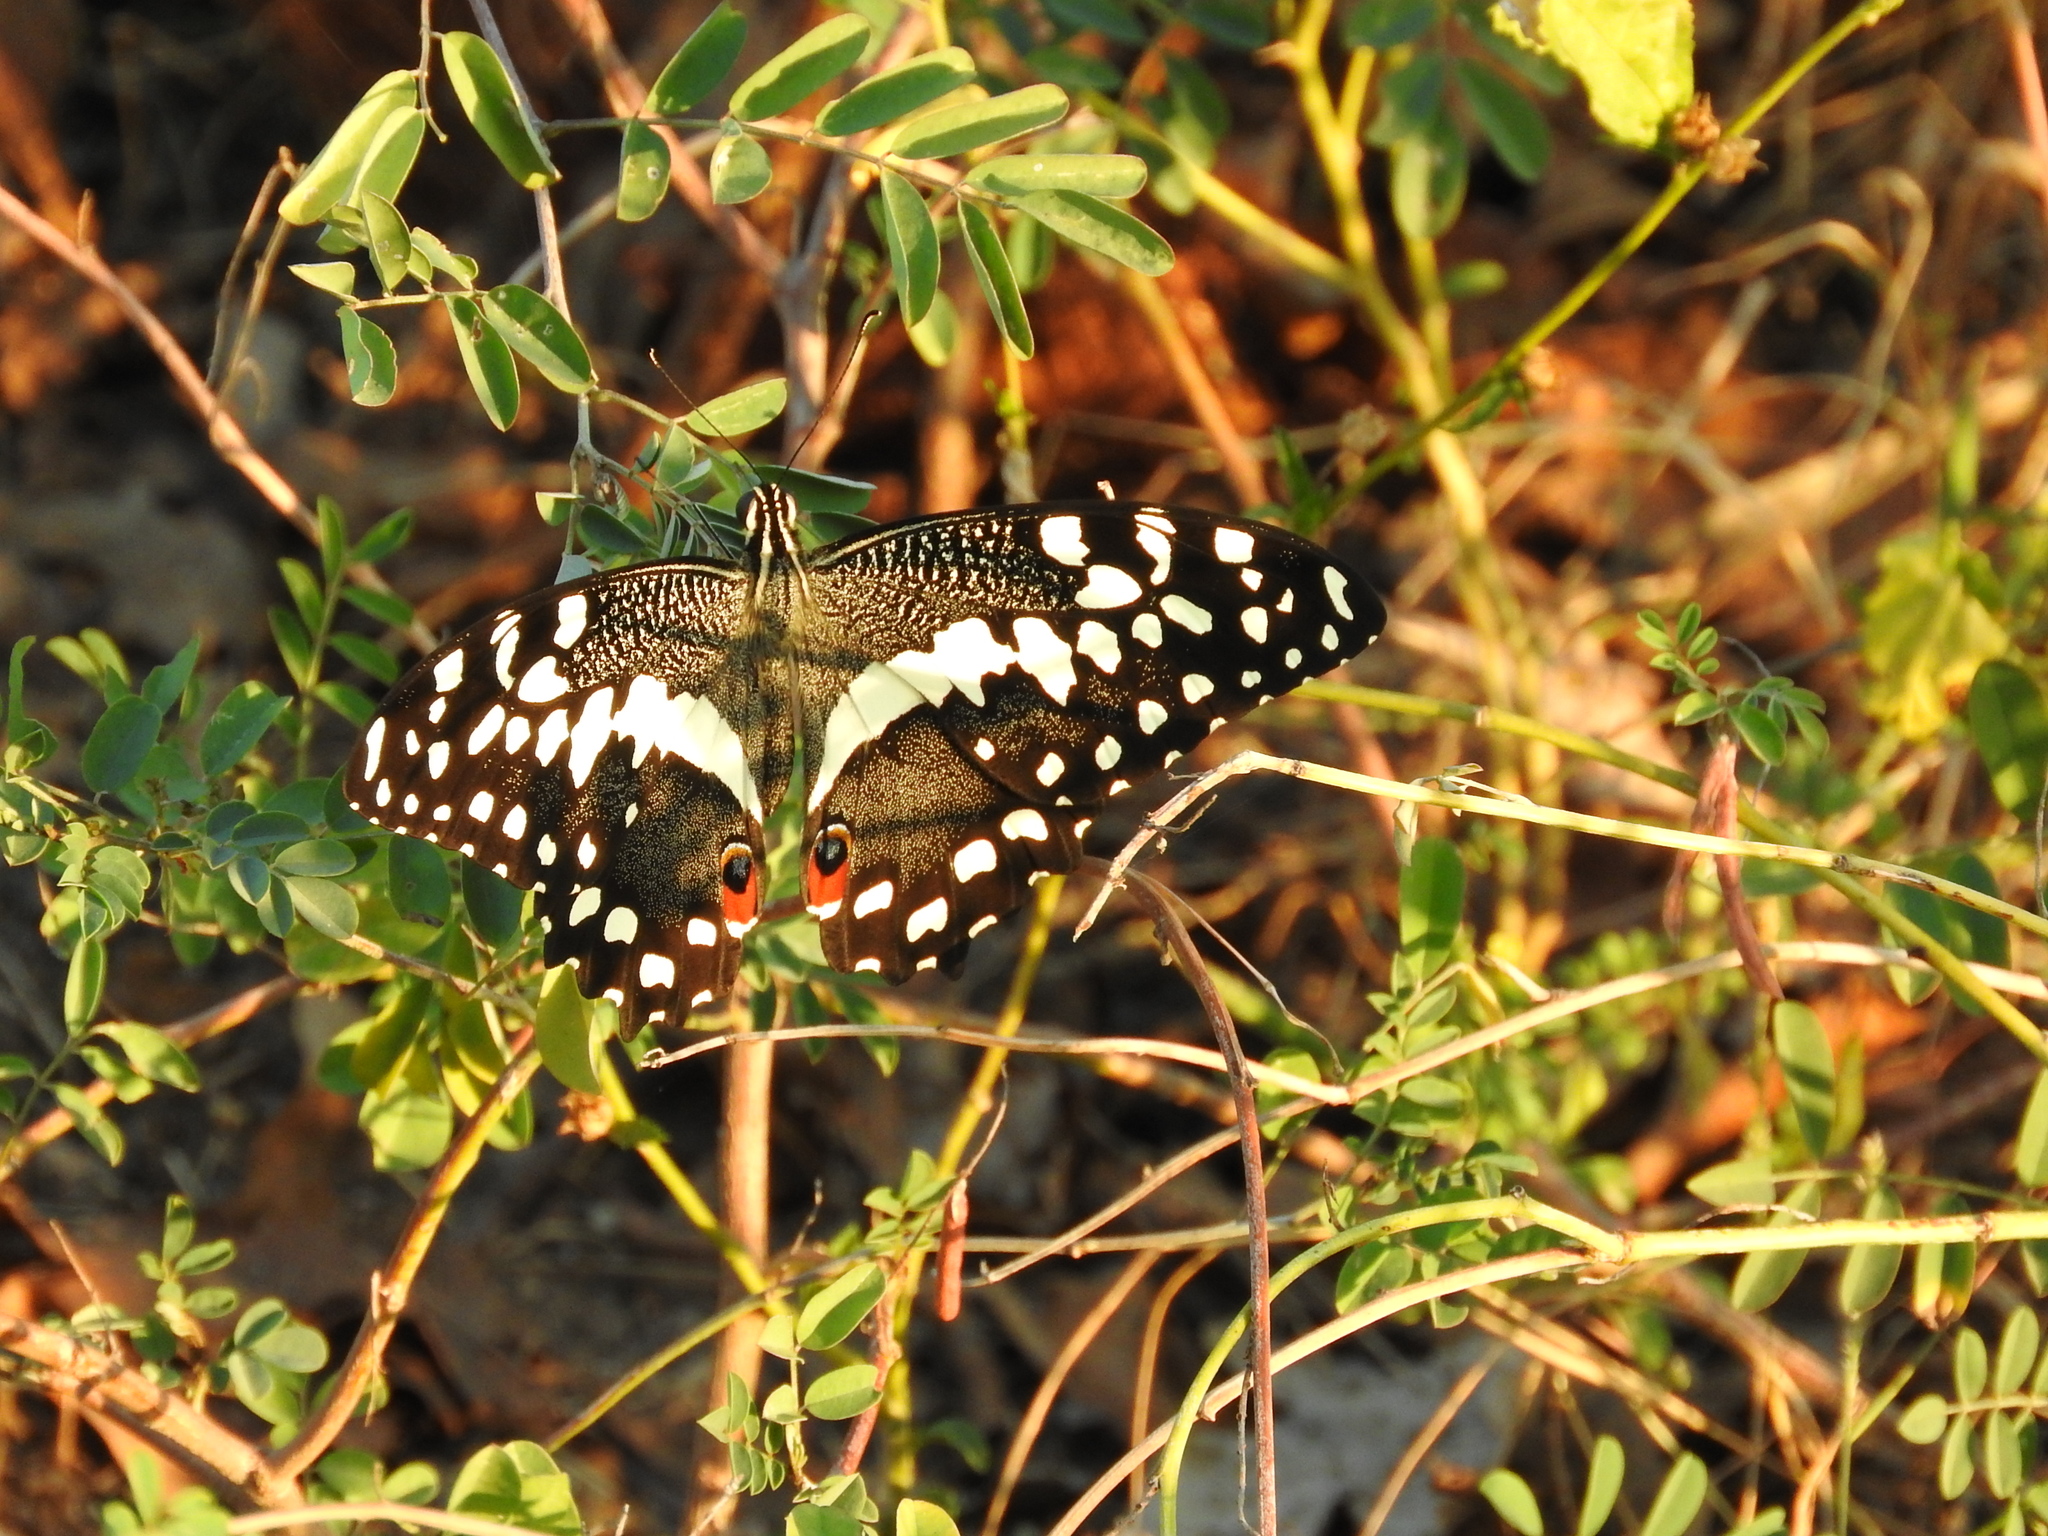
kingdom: Animalia
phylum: Chordata
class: Aves
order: Ciconiiformes
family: Ciconiidae
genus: Mycteria
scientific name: Mycteria ibis
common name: Yellow-billed stork
